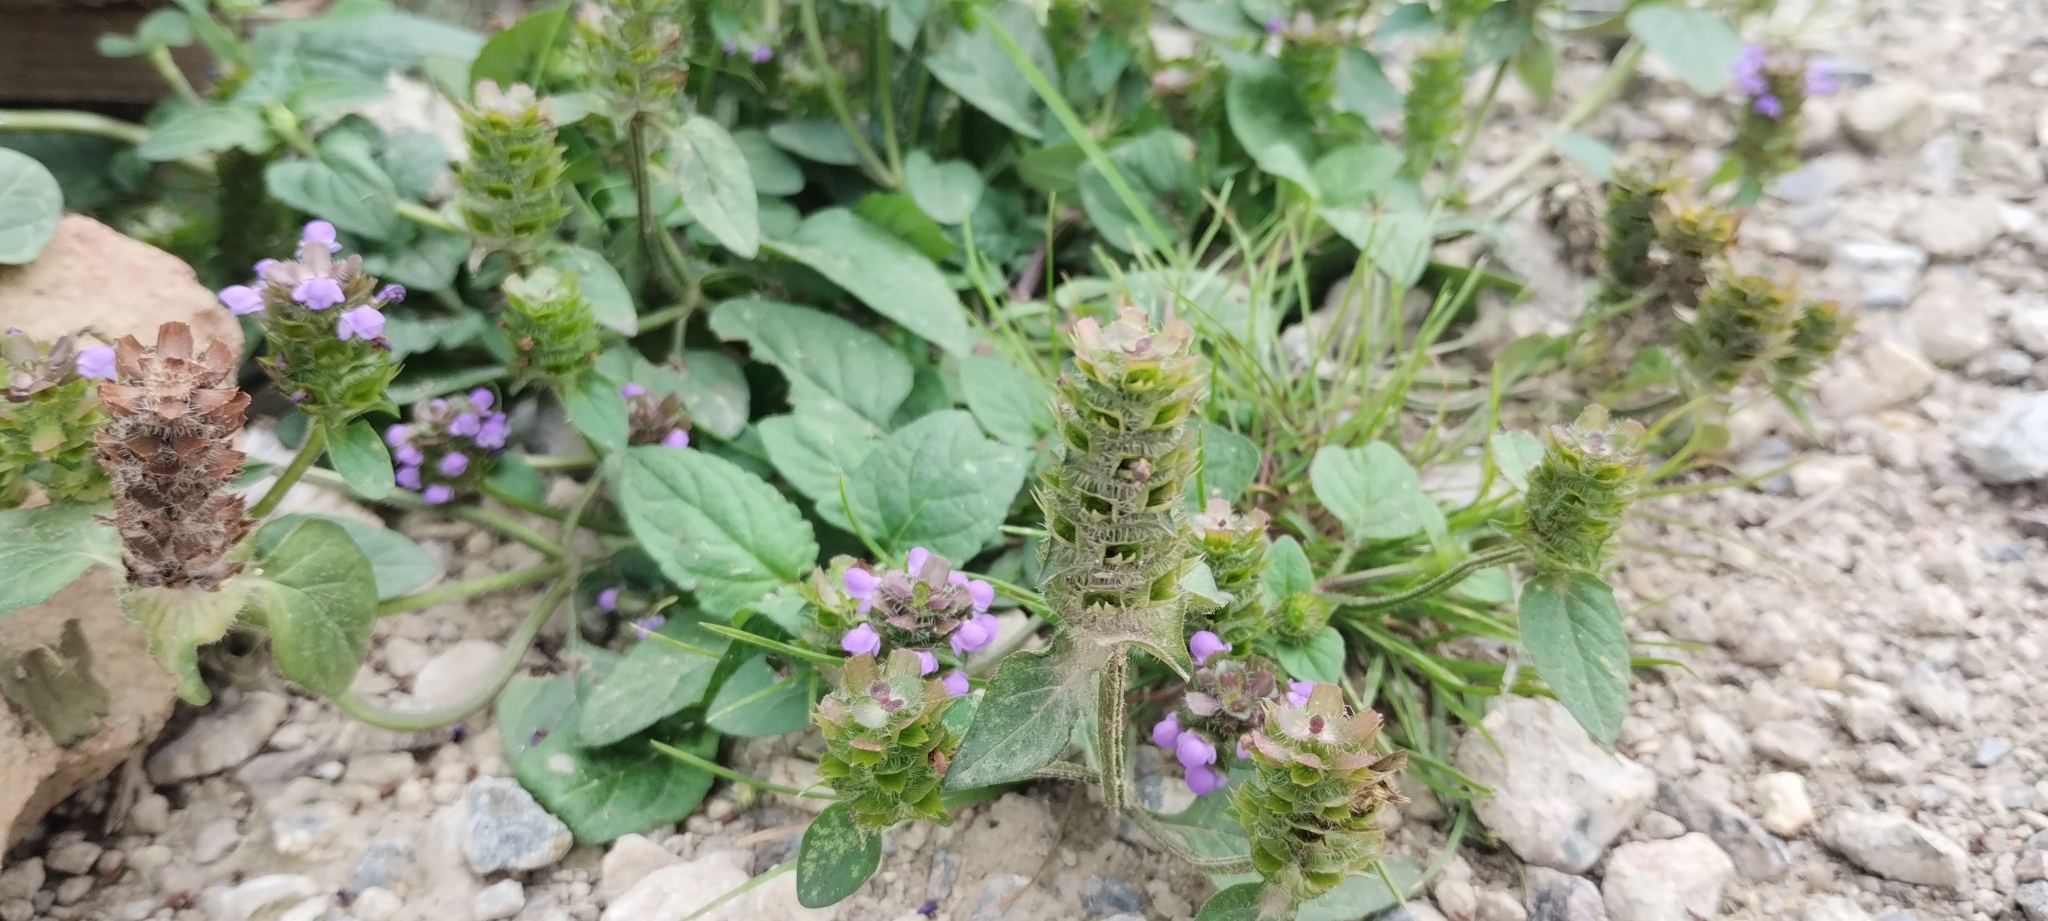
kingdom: Plantae
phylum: Tracheophyta
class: Magnoliopsida
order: Lamiales
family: Lamiaceae
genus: Prunella
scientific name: Prunella vulgaris
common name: Heal-all
